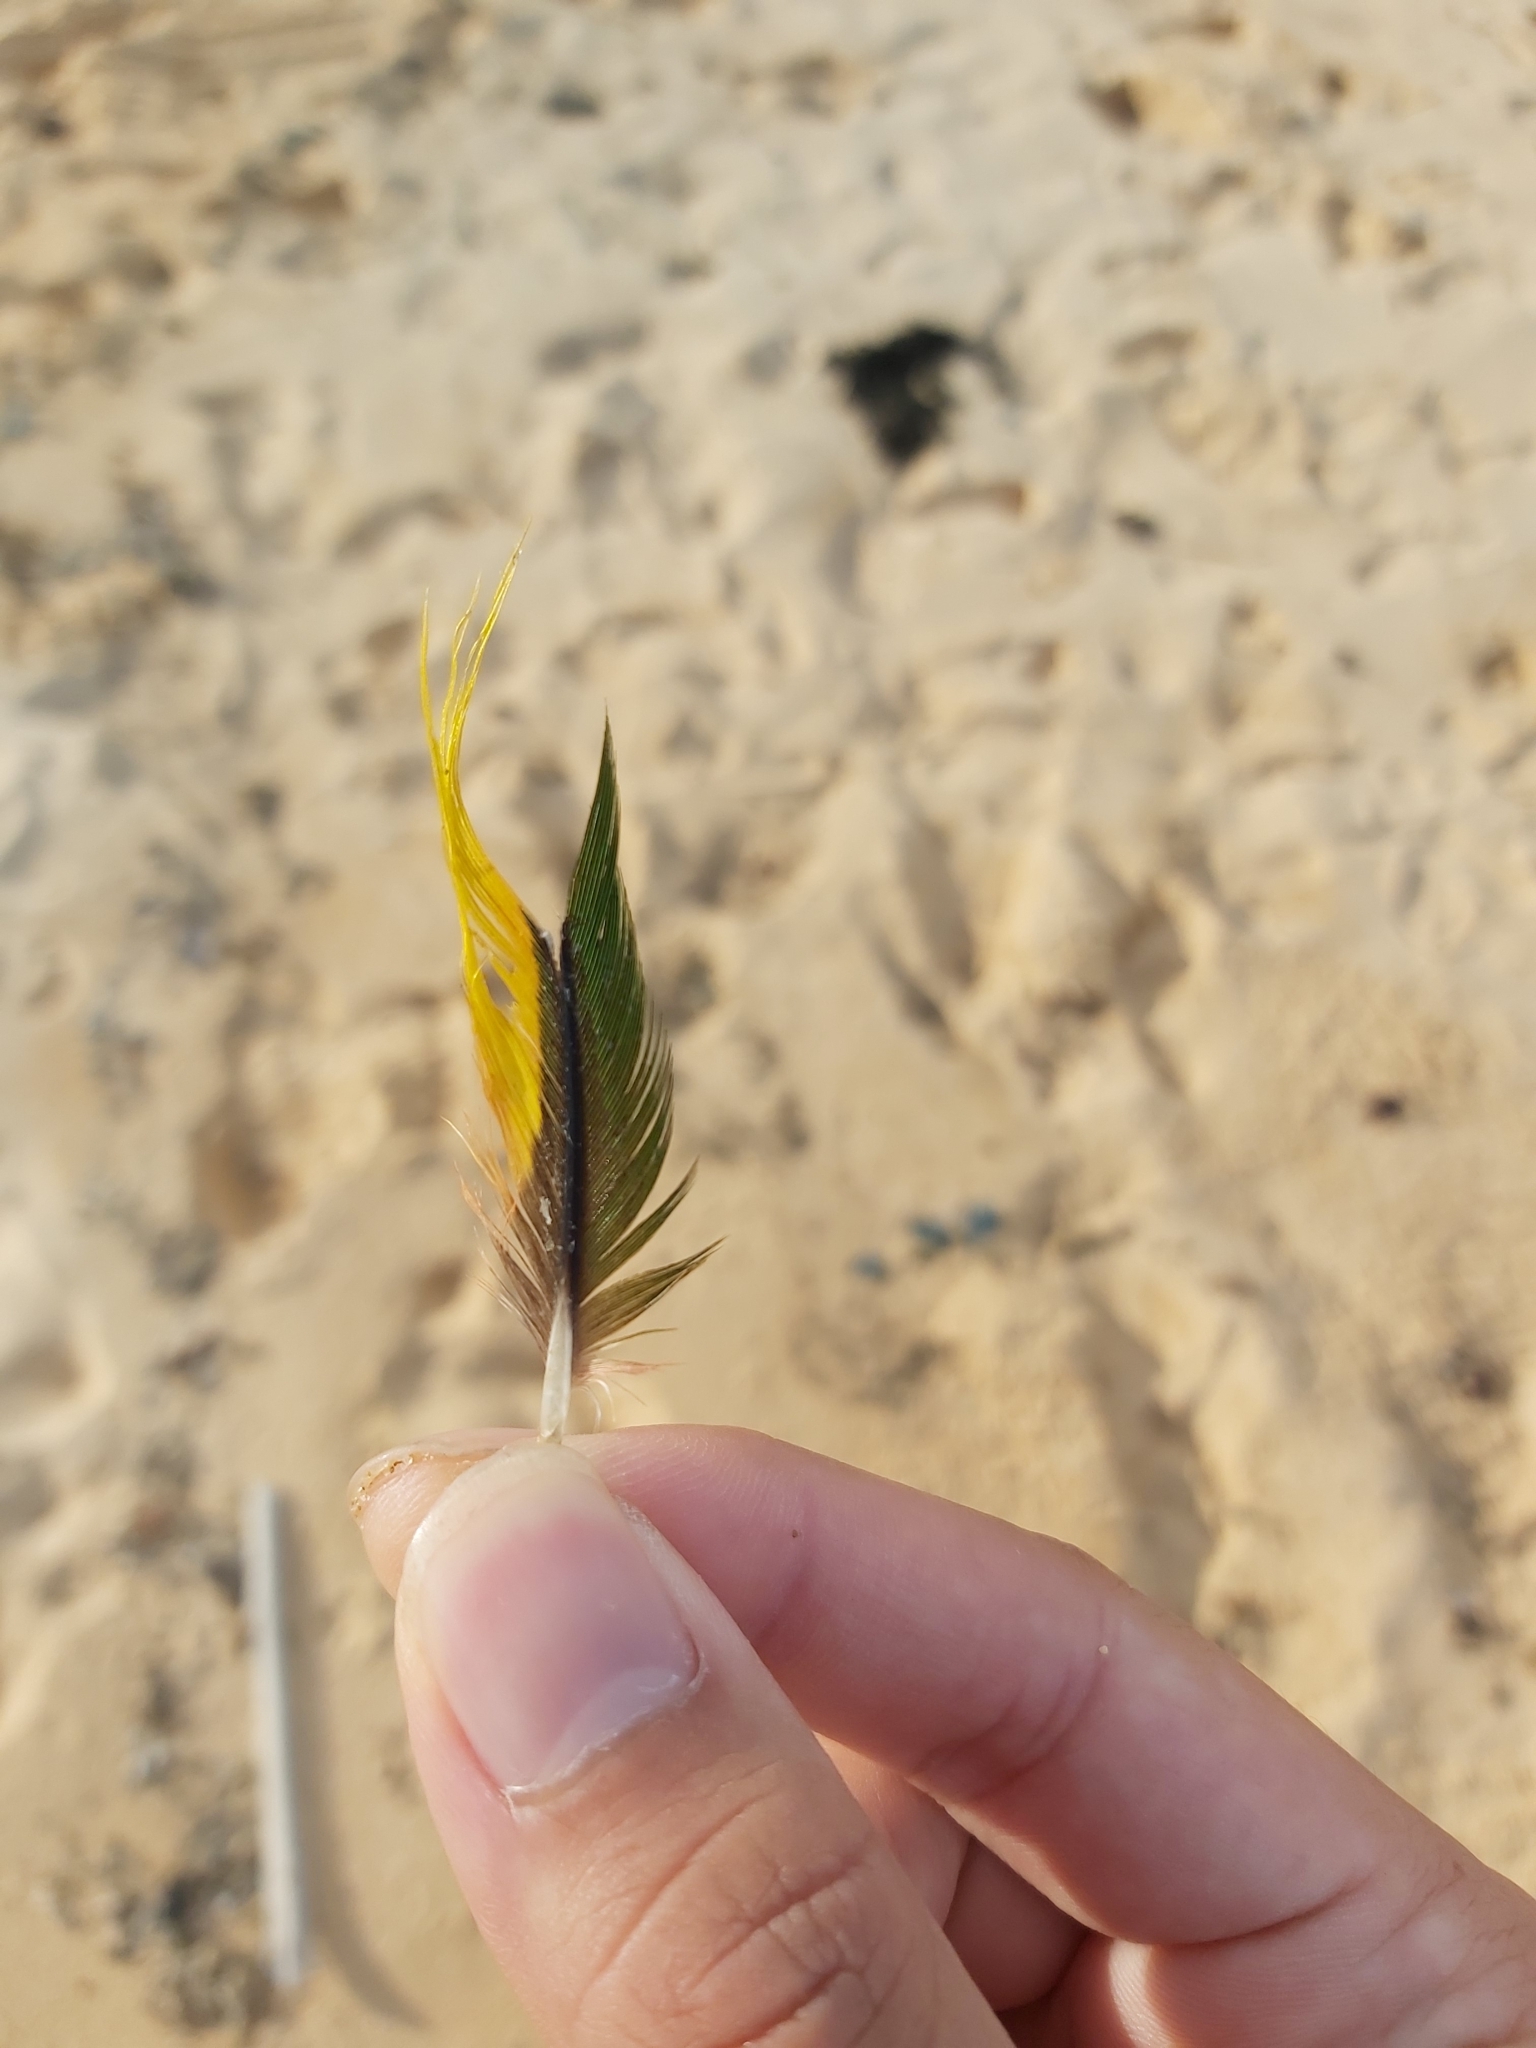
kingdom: Animalia
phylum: Chordata
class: Aves
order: Psittaciformes
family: Psittacidae
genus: Trichoglossus
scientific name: Trichoglossus haematodus
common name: Coconut lorikeet
